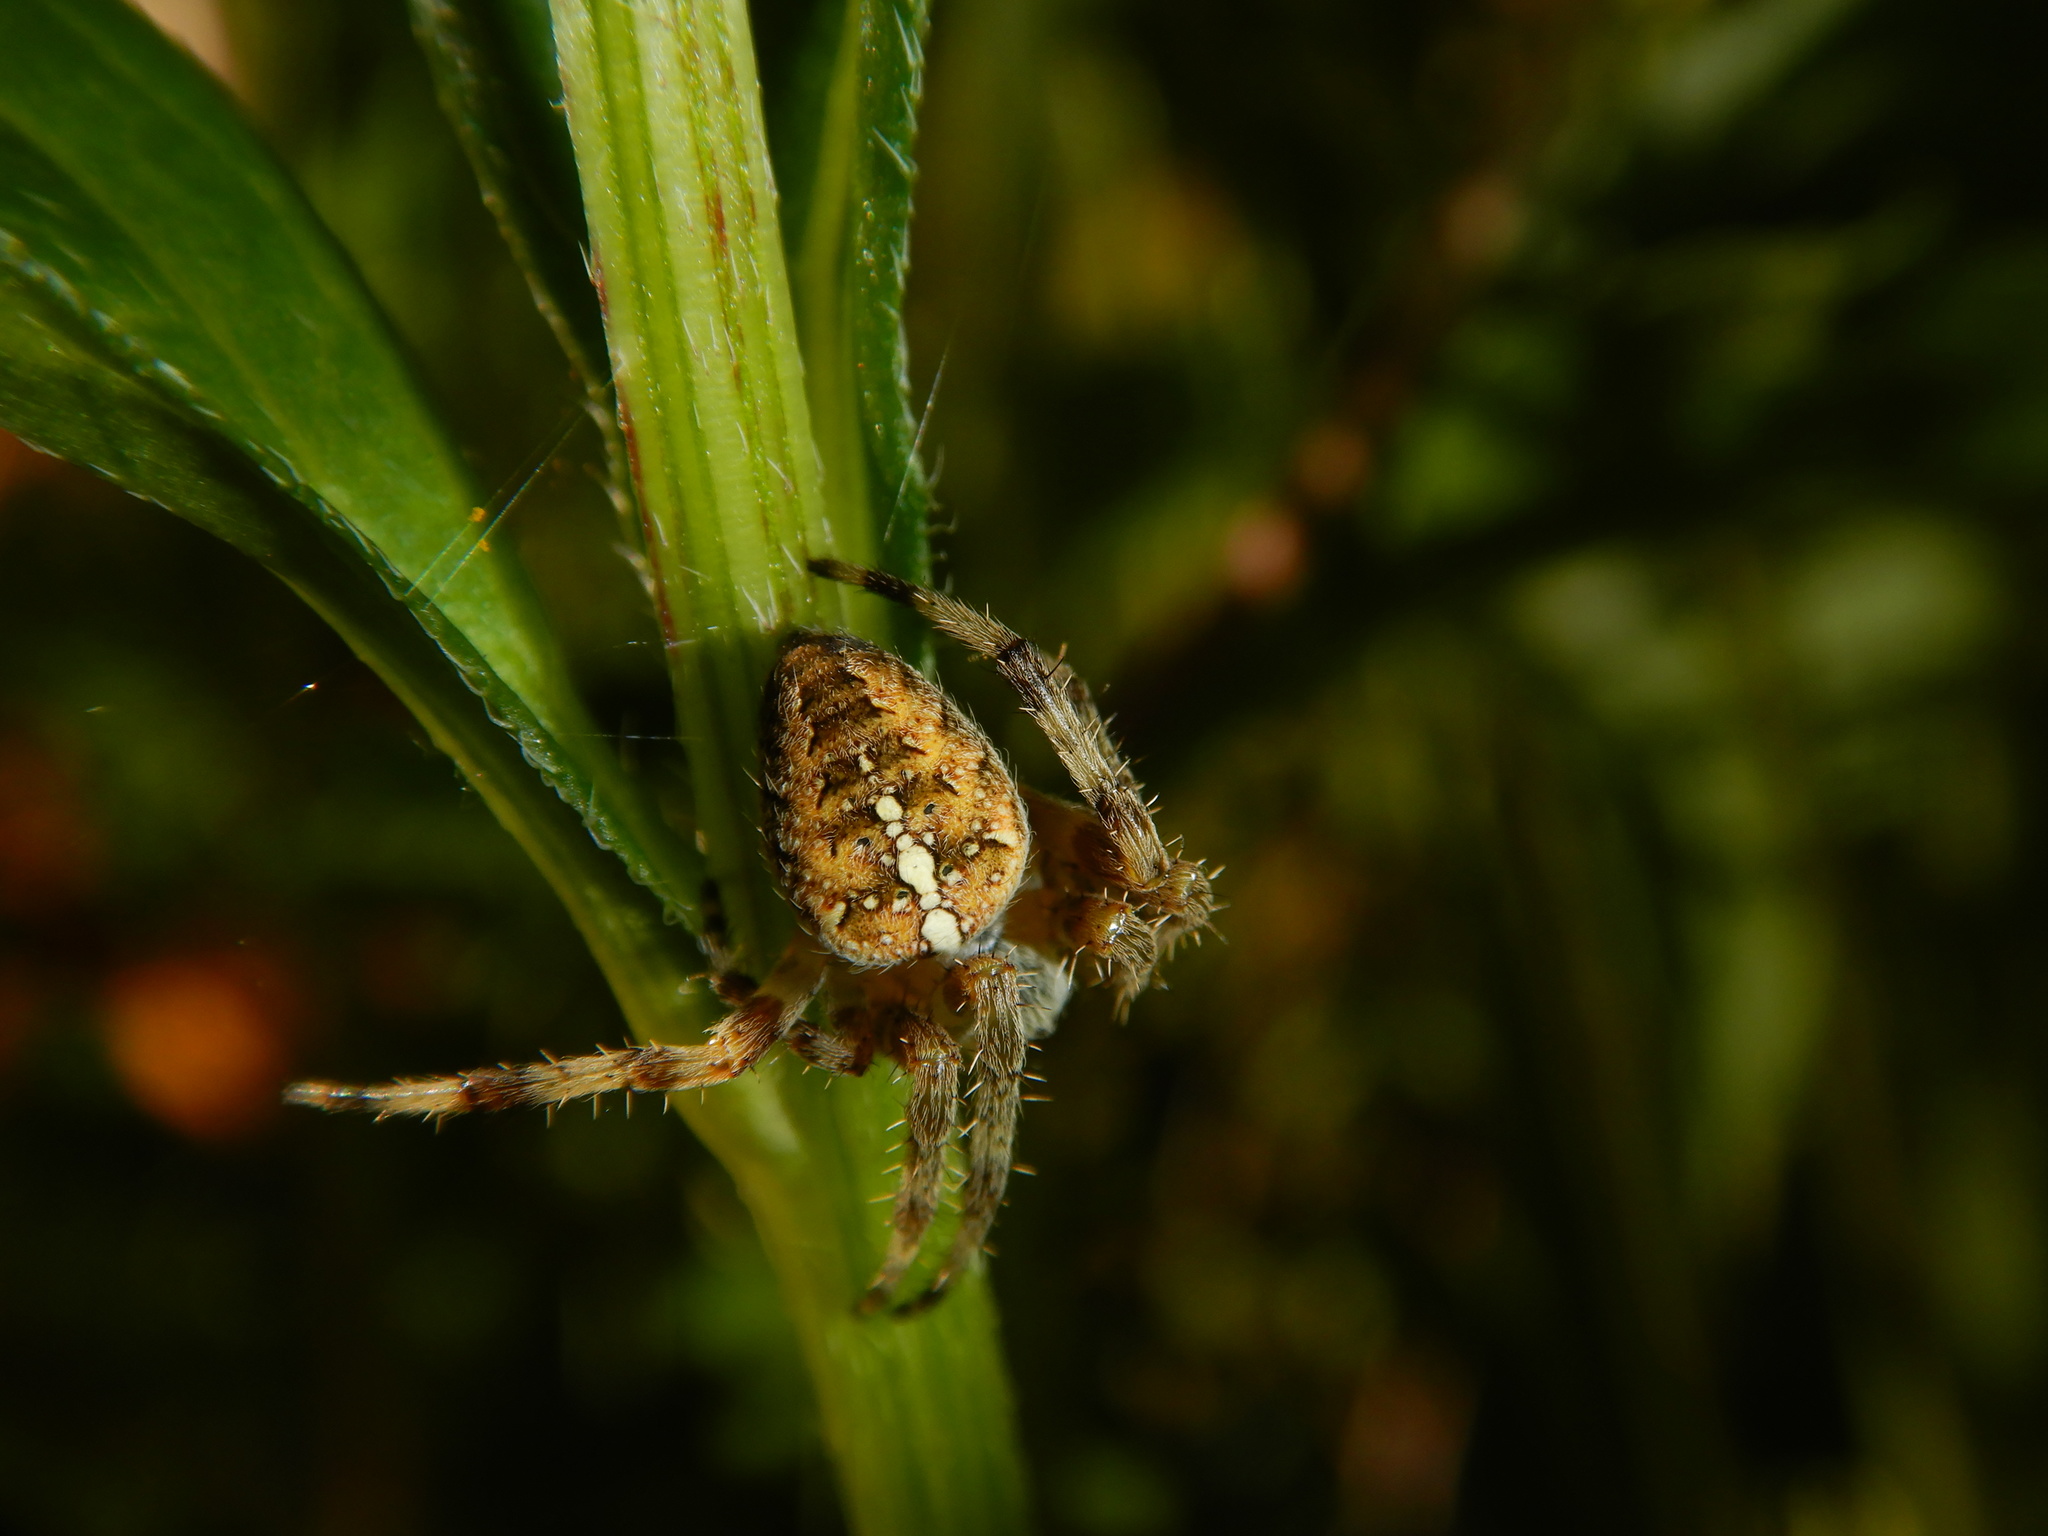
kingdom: Animalia
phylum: Arthropoda
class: Arachnida
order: Araneae
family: Araneidae
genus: Araneus
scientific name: Araneus diadematus
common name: Cross orbweaver
